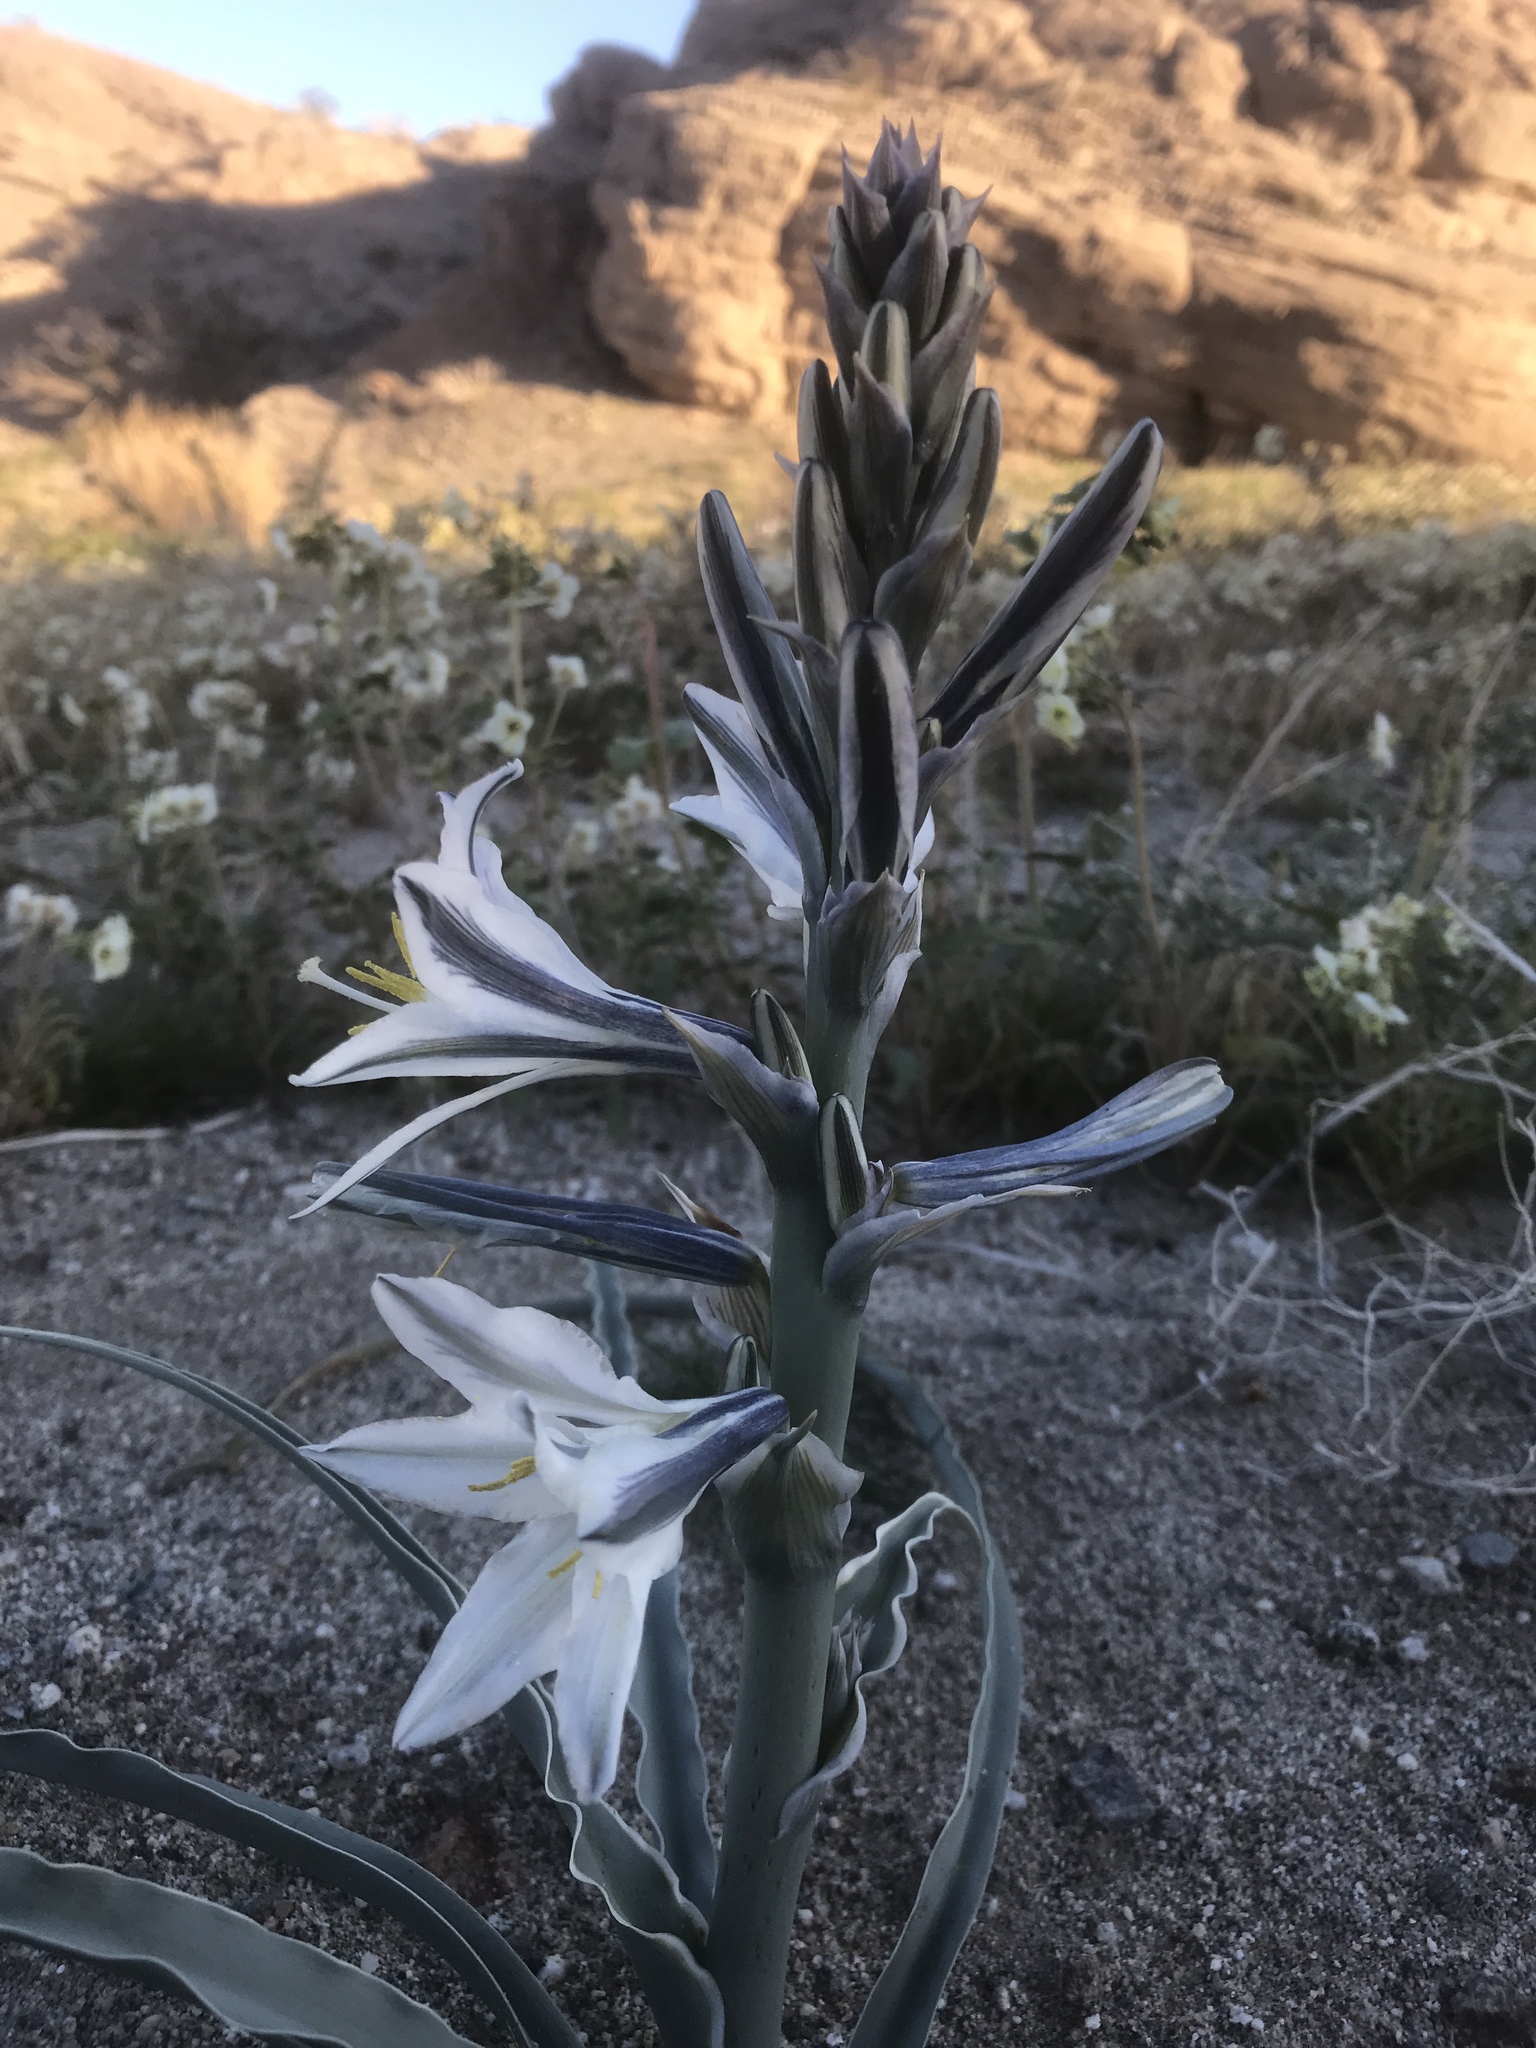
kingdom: Plantae
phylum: Tracheophyta
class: Liliopsida
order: Asparagales
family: Asparagaceae
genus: Hesperocallis
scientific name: Hesperocallis undulata
